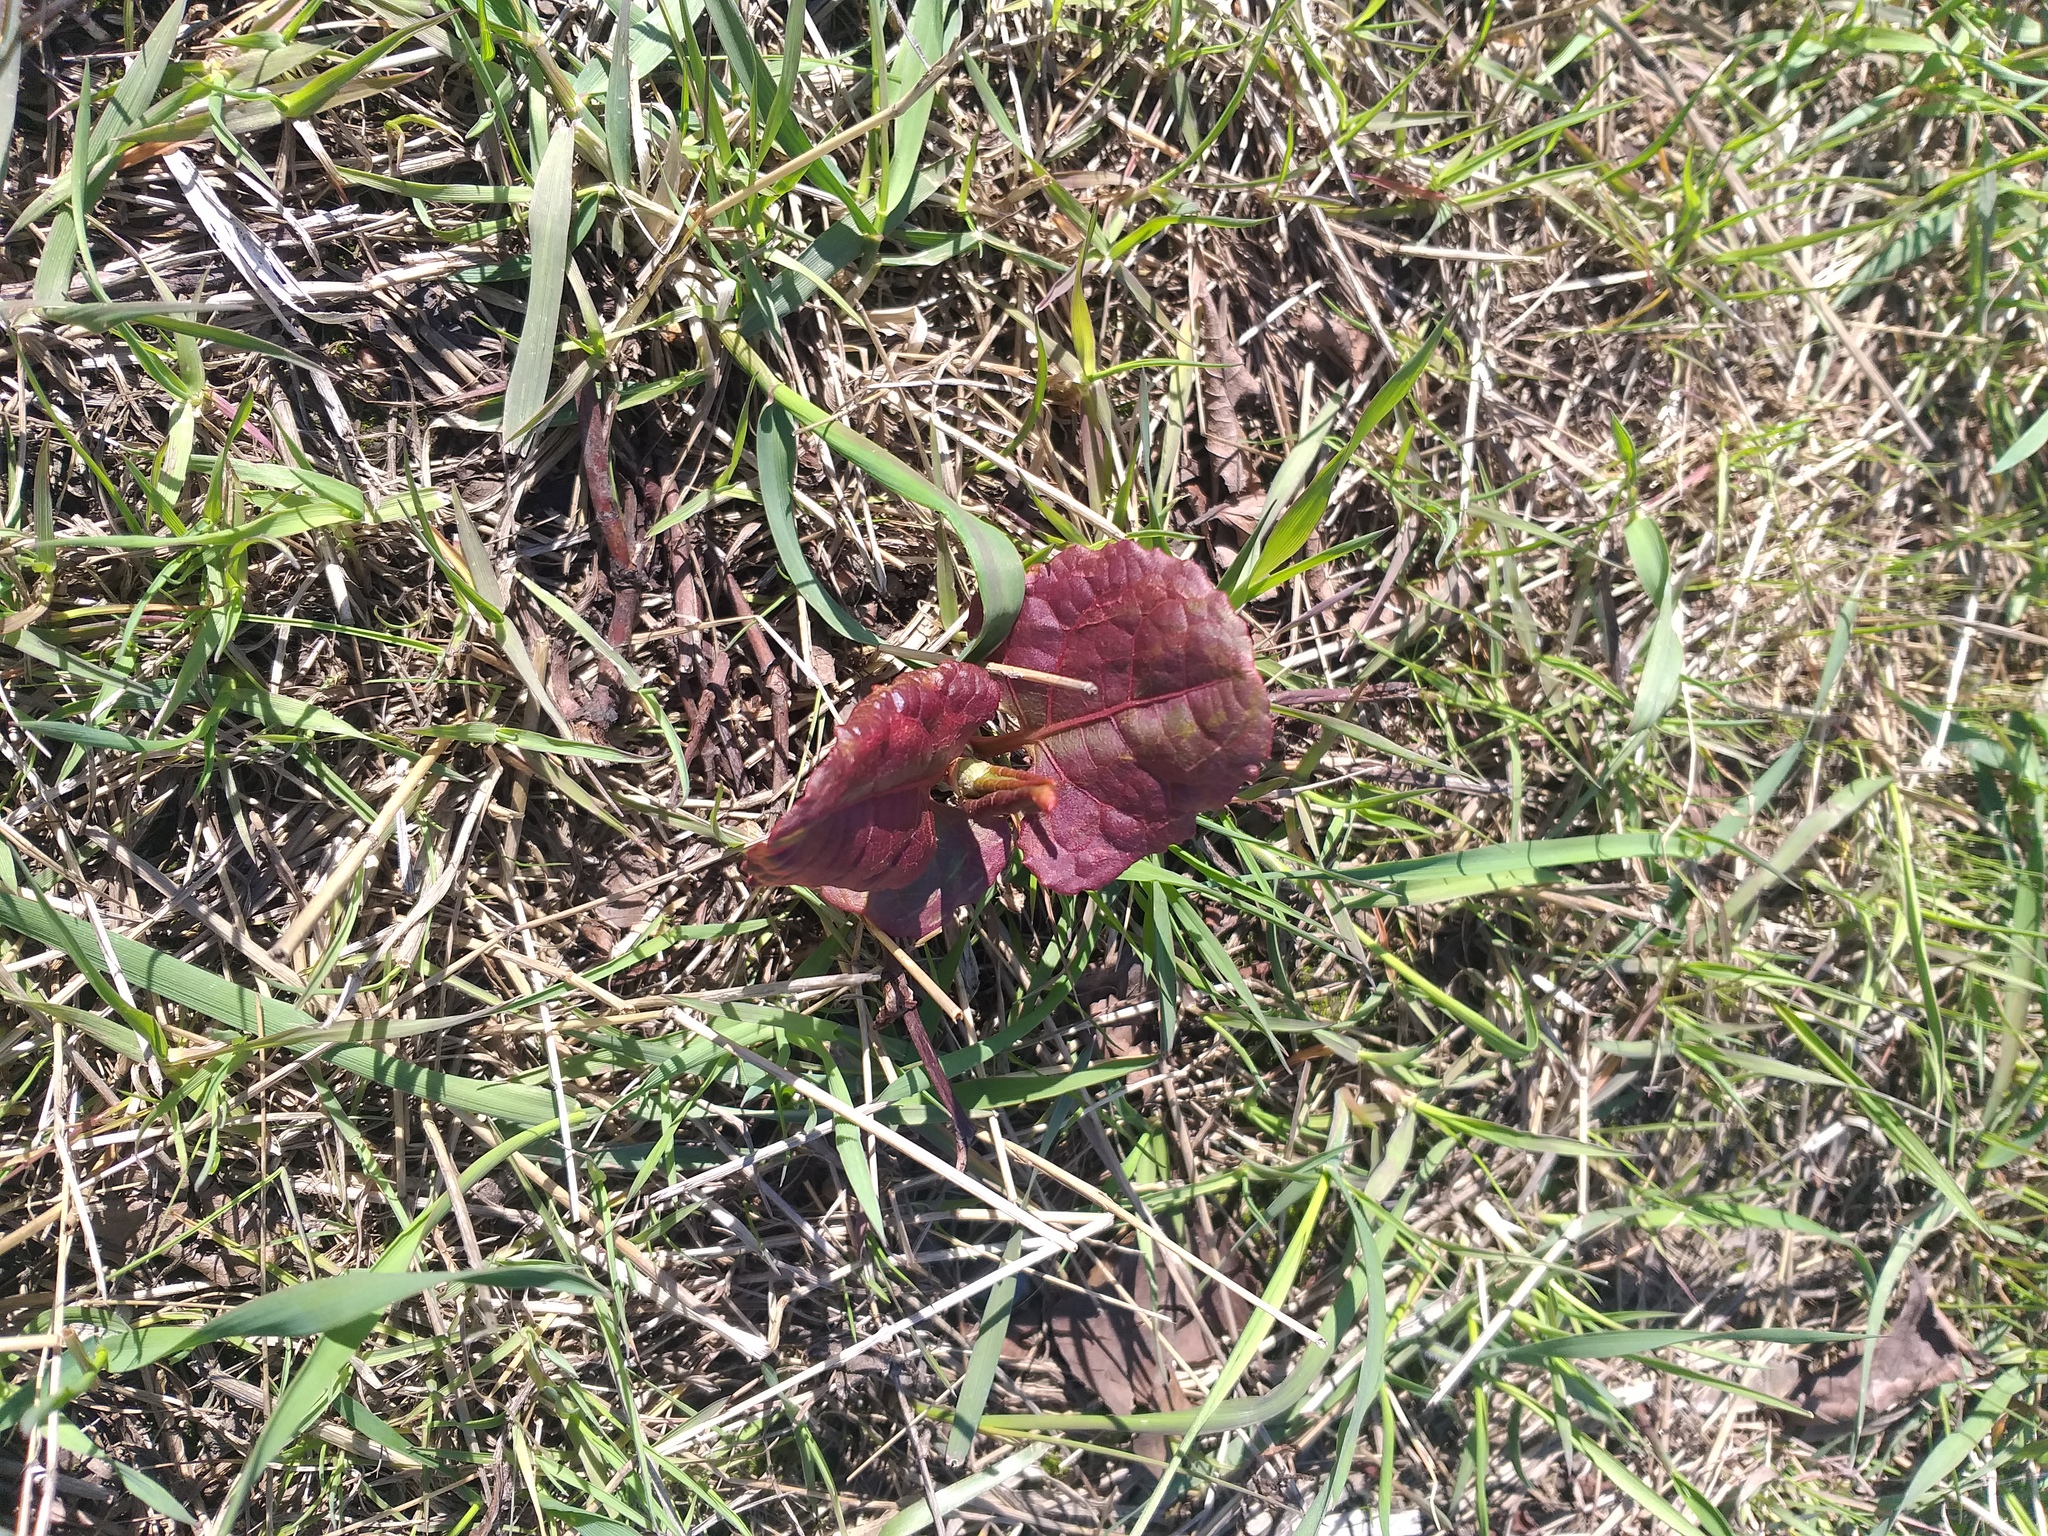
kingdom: Plantae
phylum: Tracheophyta
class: Magnoliopsida
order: Caryophyllales
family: Polygonaceae
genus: Reynoutria
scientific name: Reynoutria bohemica
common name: Bohemian knotweed
